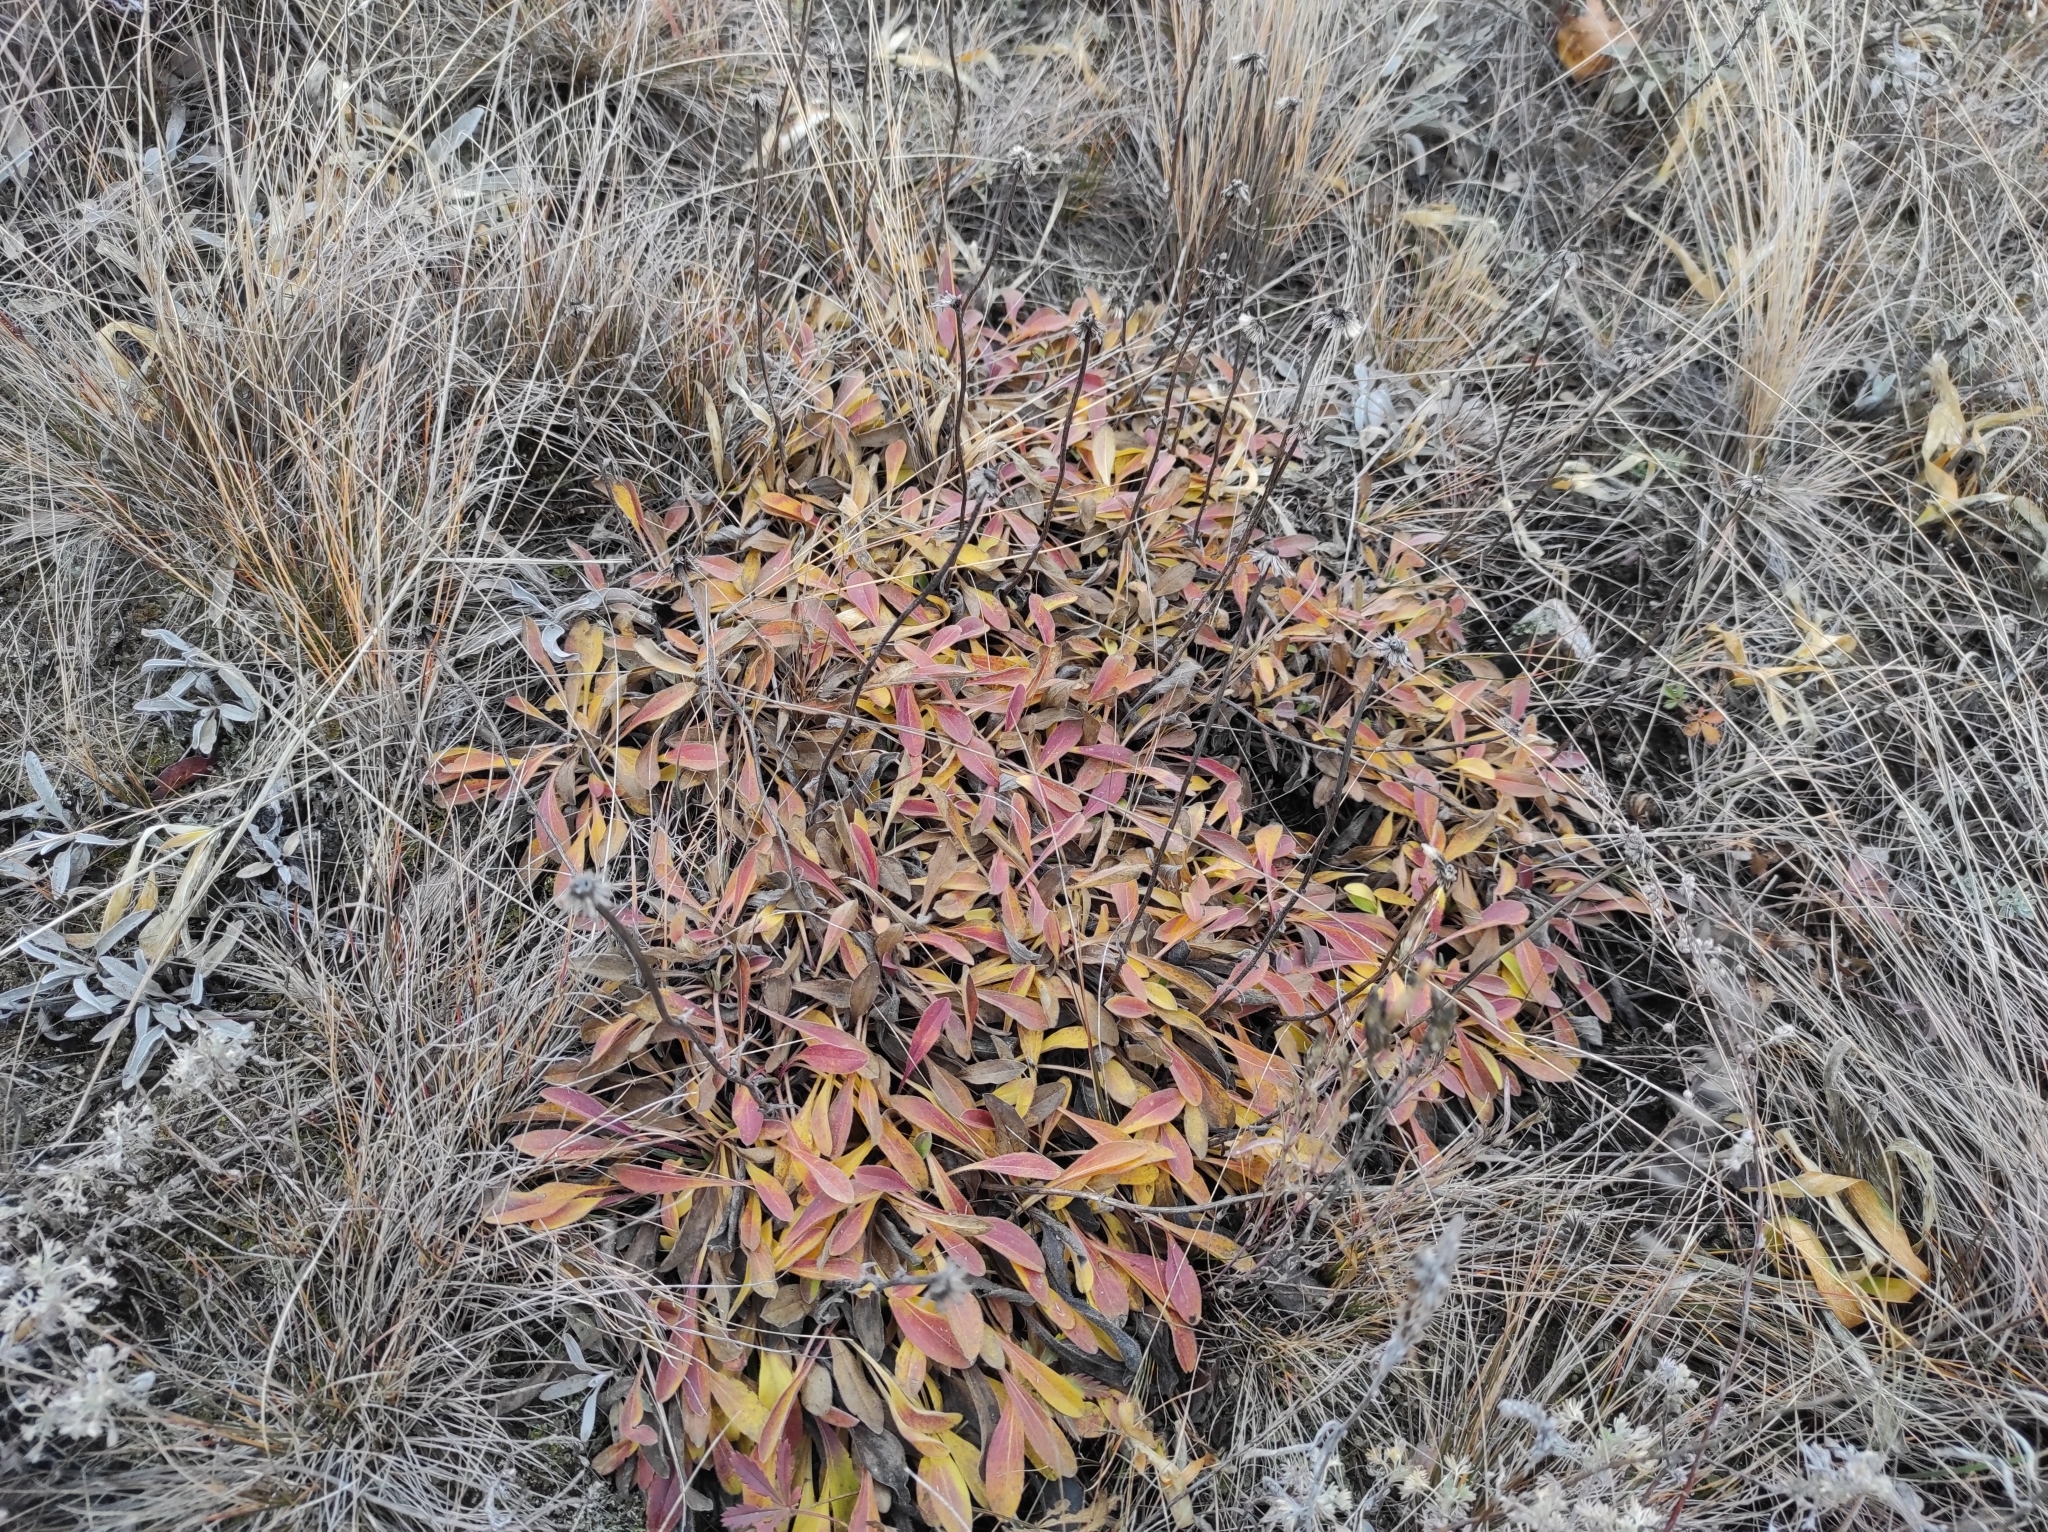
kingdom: Plantae
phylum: Tracheophyta
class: Magnoliopsida
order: Asterales
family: Asteraceae
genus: Aster
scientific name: Aster alpinus
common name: Alpine aster
